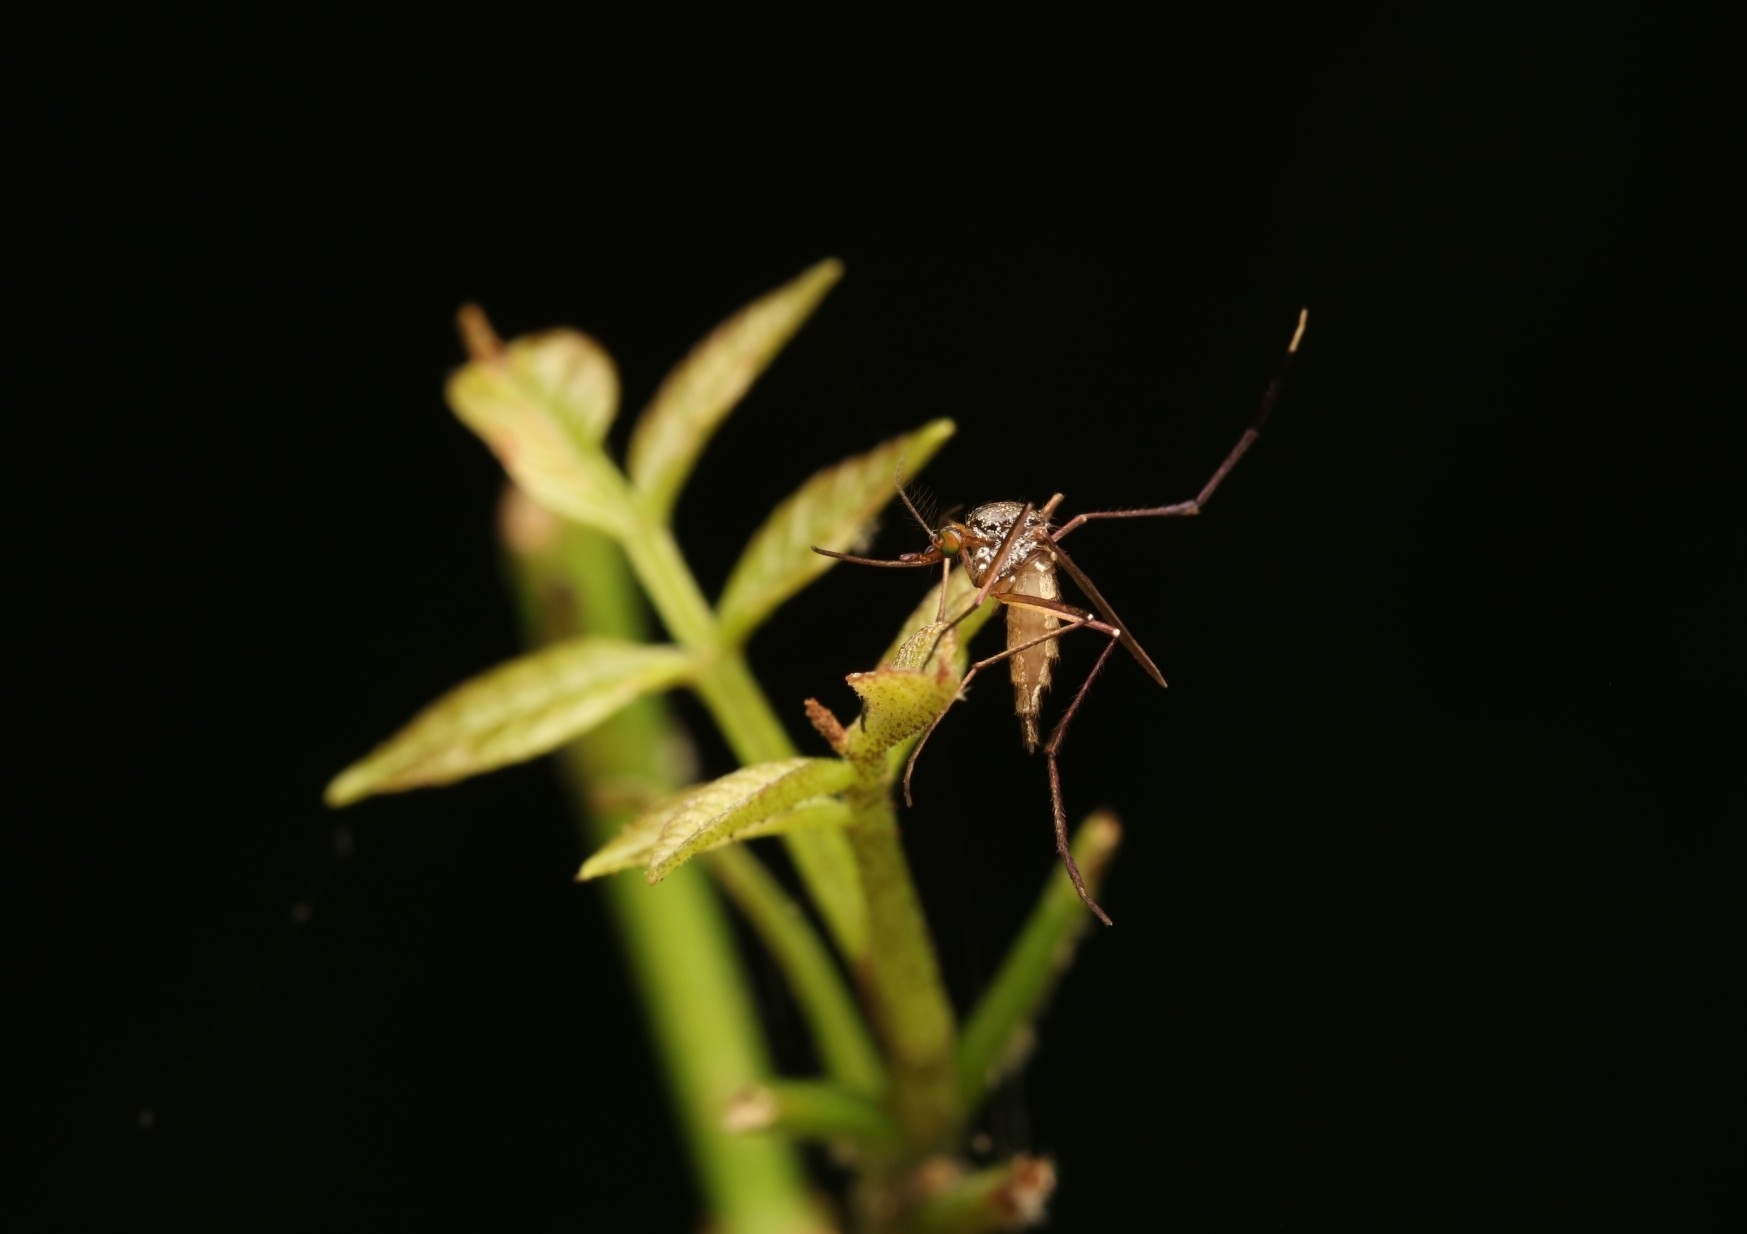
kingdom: Animalia
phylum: Arthropoda
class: Insecta
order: Diptera
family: Culicidae
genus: Psorophora
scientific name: Psorophora ferox
